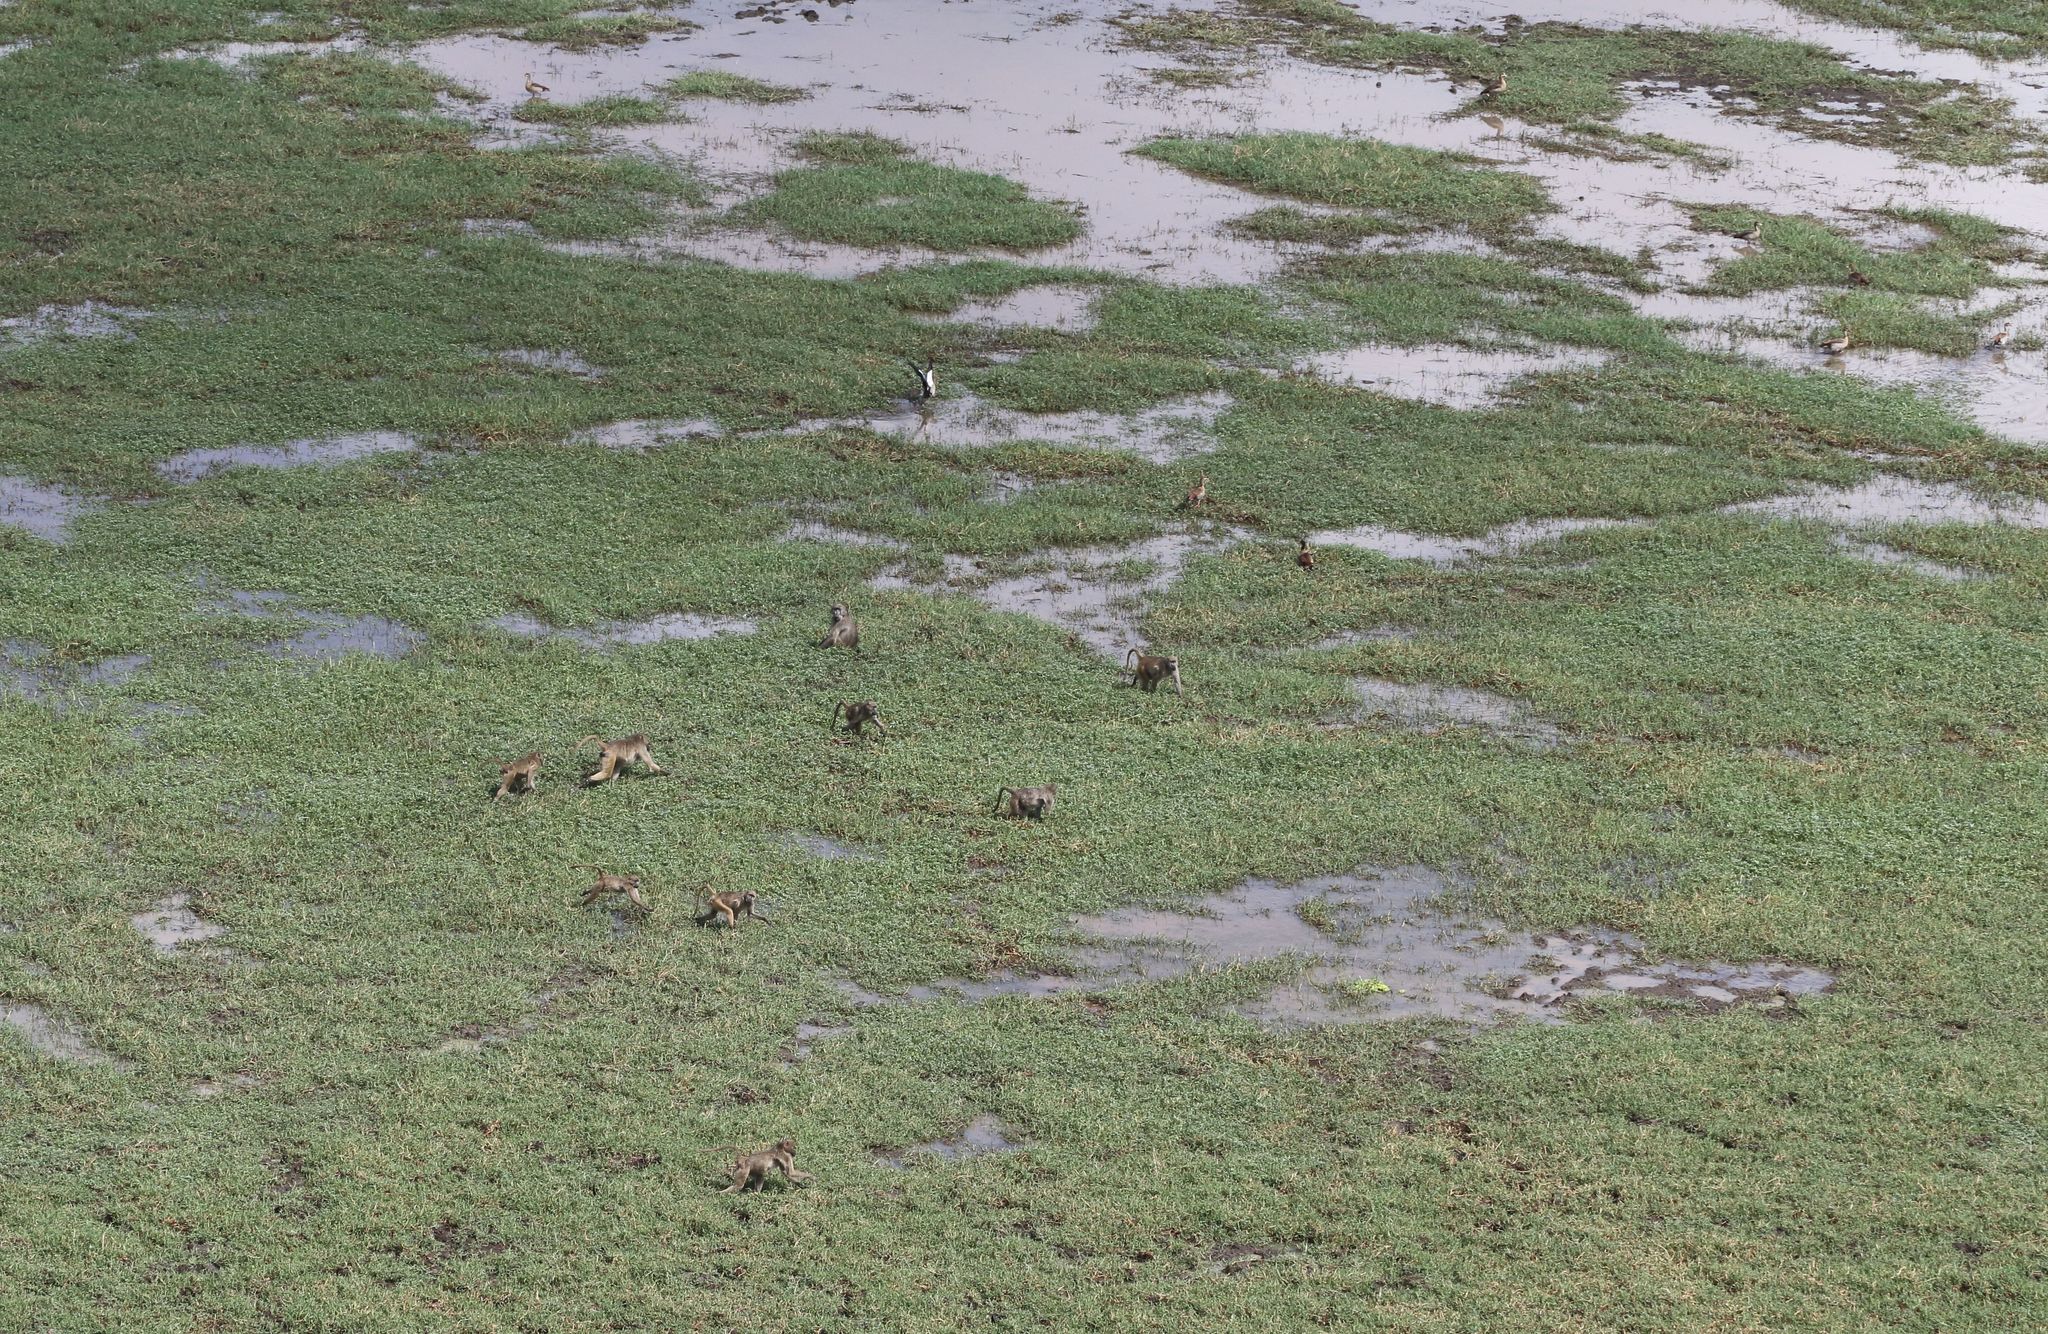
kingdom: Animalia
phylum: Chordata
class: Mammalia
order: Primates
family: Cercopithecidae
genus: Papio
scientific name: Papio ursinus
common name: Chacma baboon
